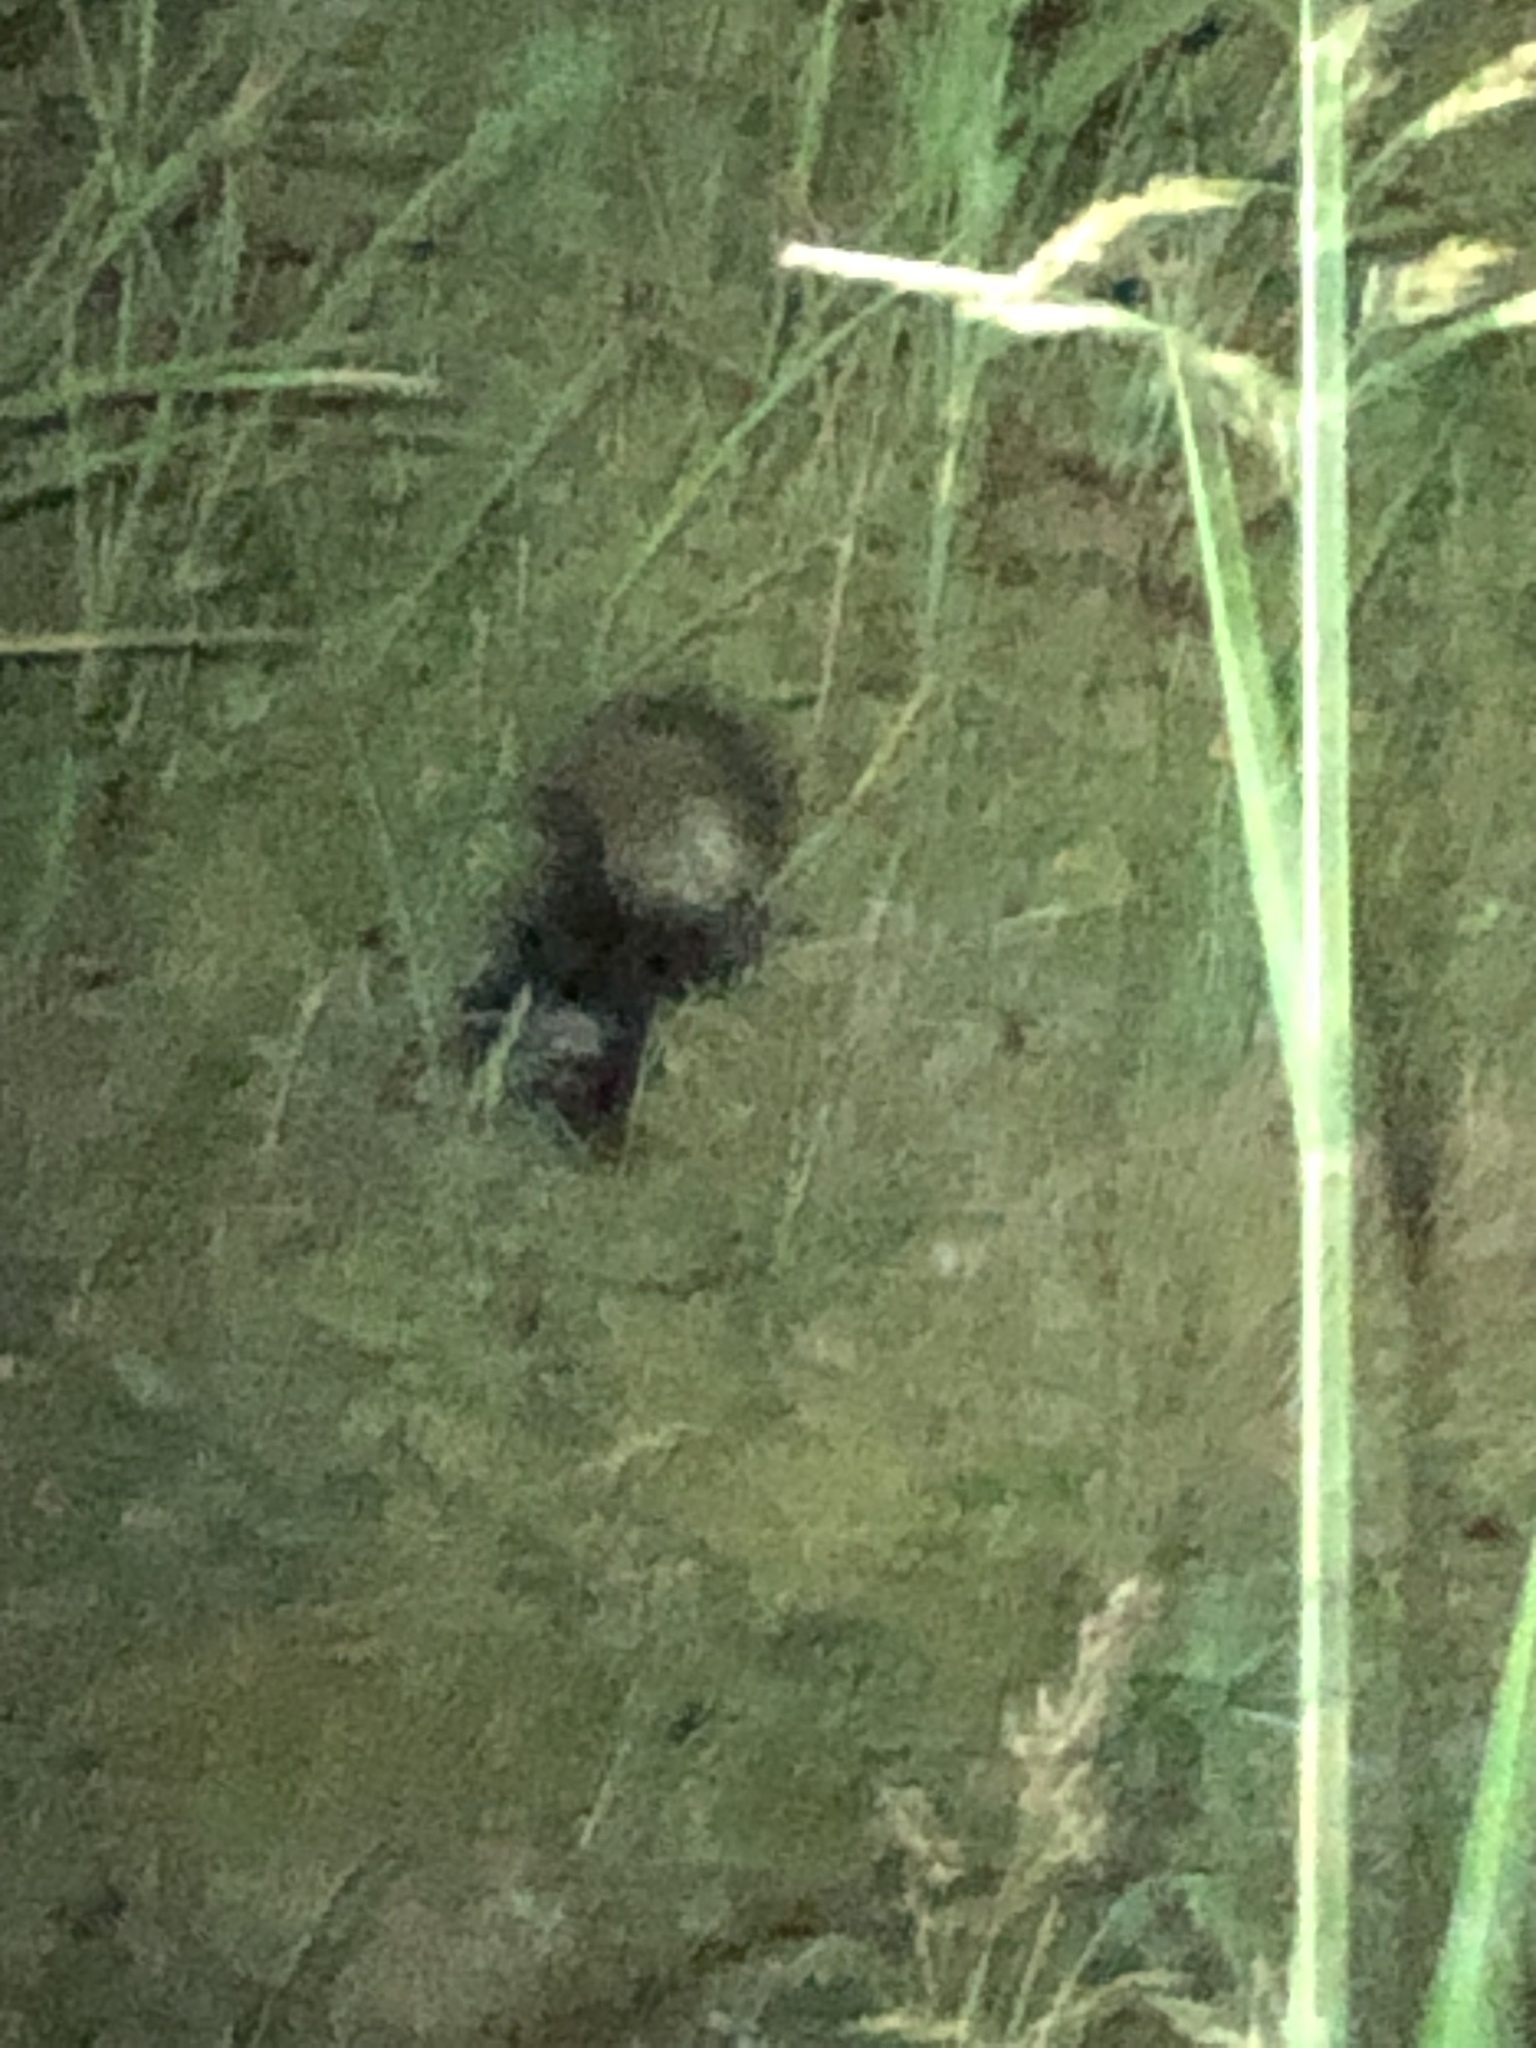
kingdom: Animalia
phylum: Chordata
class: Mammalia
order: Carnivora
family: Mephitidae
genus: Mephitis
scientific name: Mephitis mephitis
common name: Striped skunk
